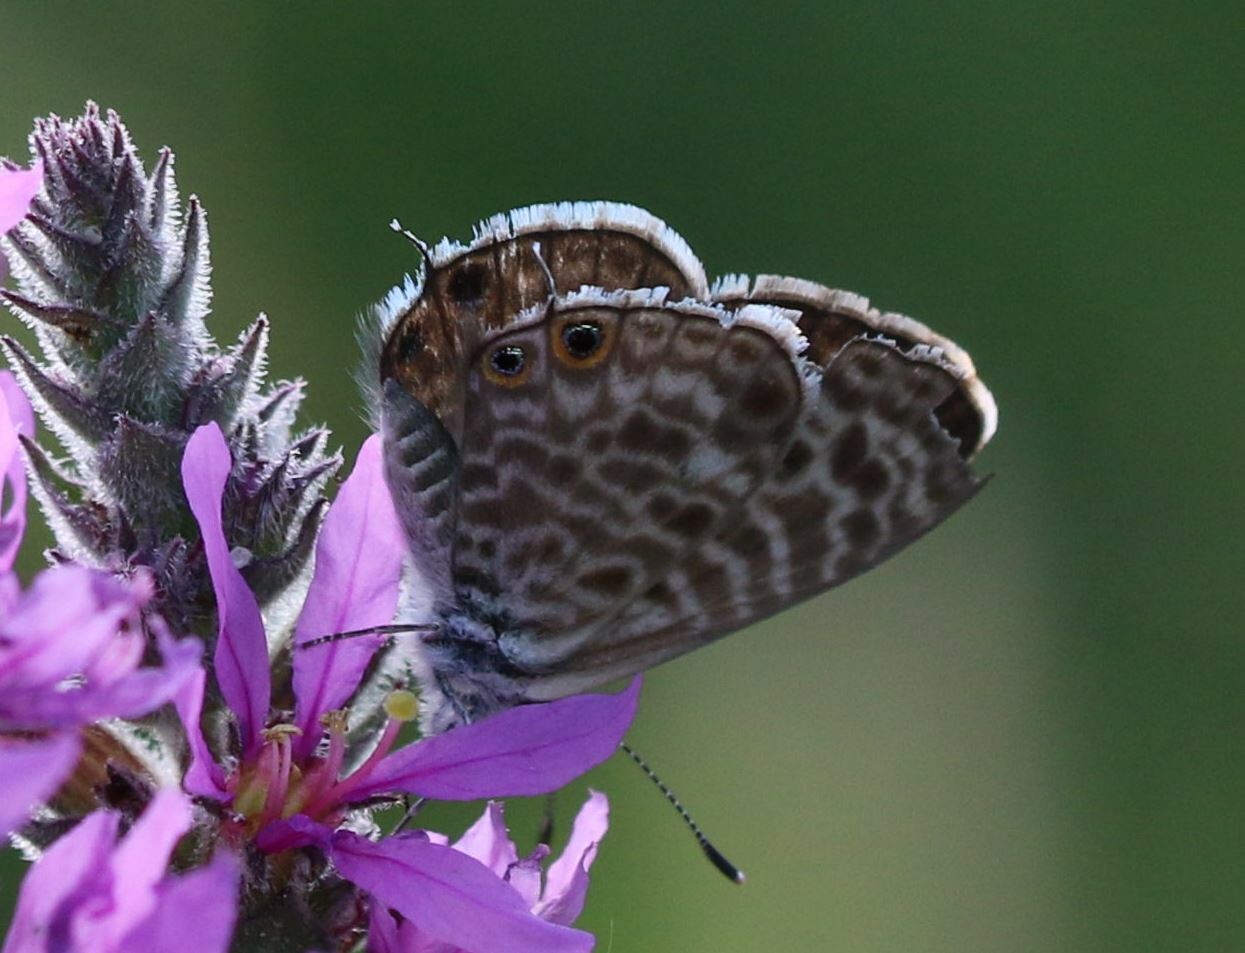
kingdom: Animalia
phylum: Arthropoda
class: Insecta
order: Lepidoptera
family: Lycaenidae
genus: Leptotes
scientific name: Leptotes pirithous
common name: Lang's short-tailed blue
